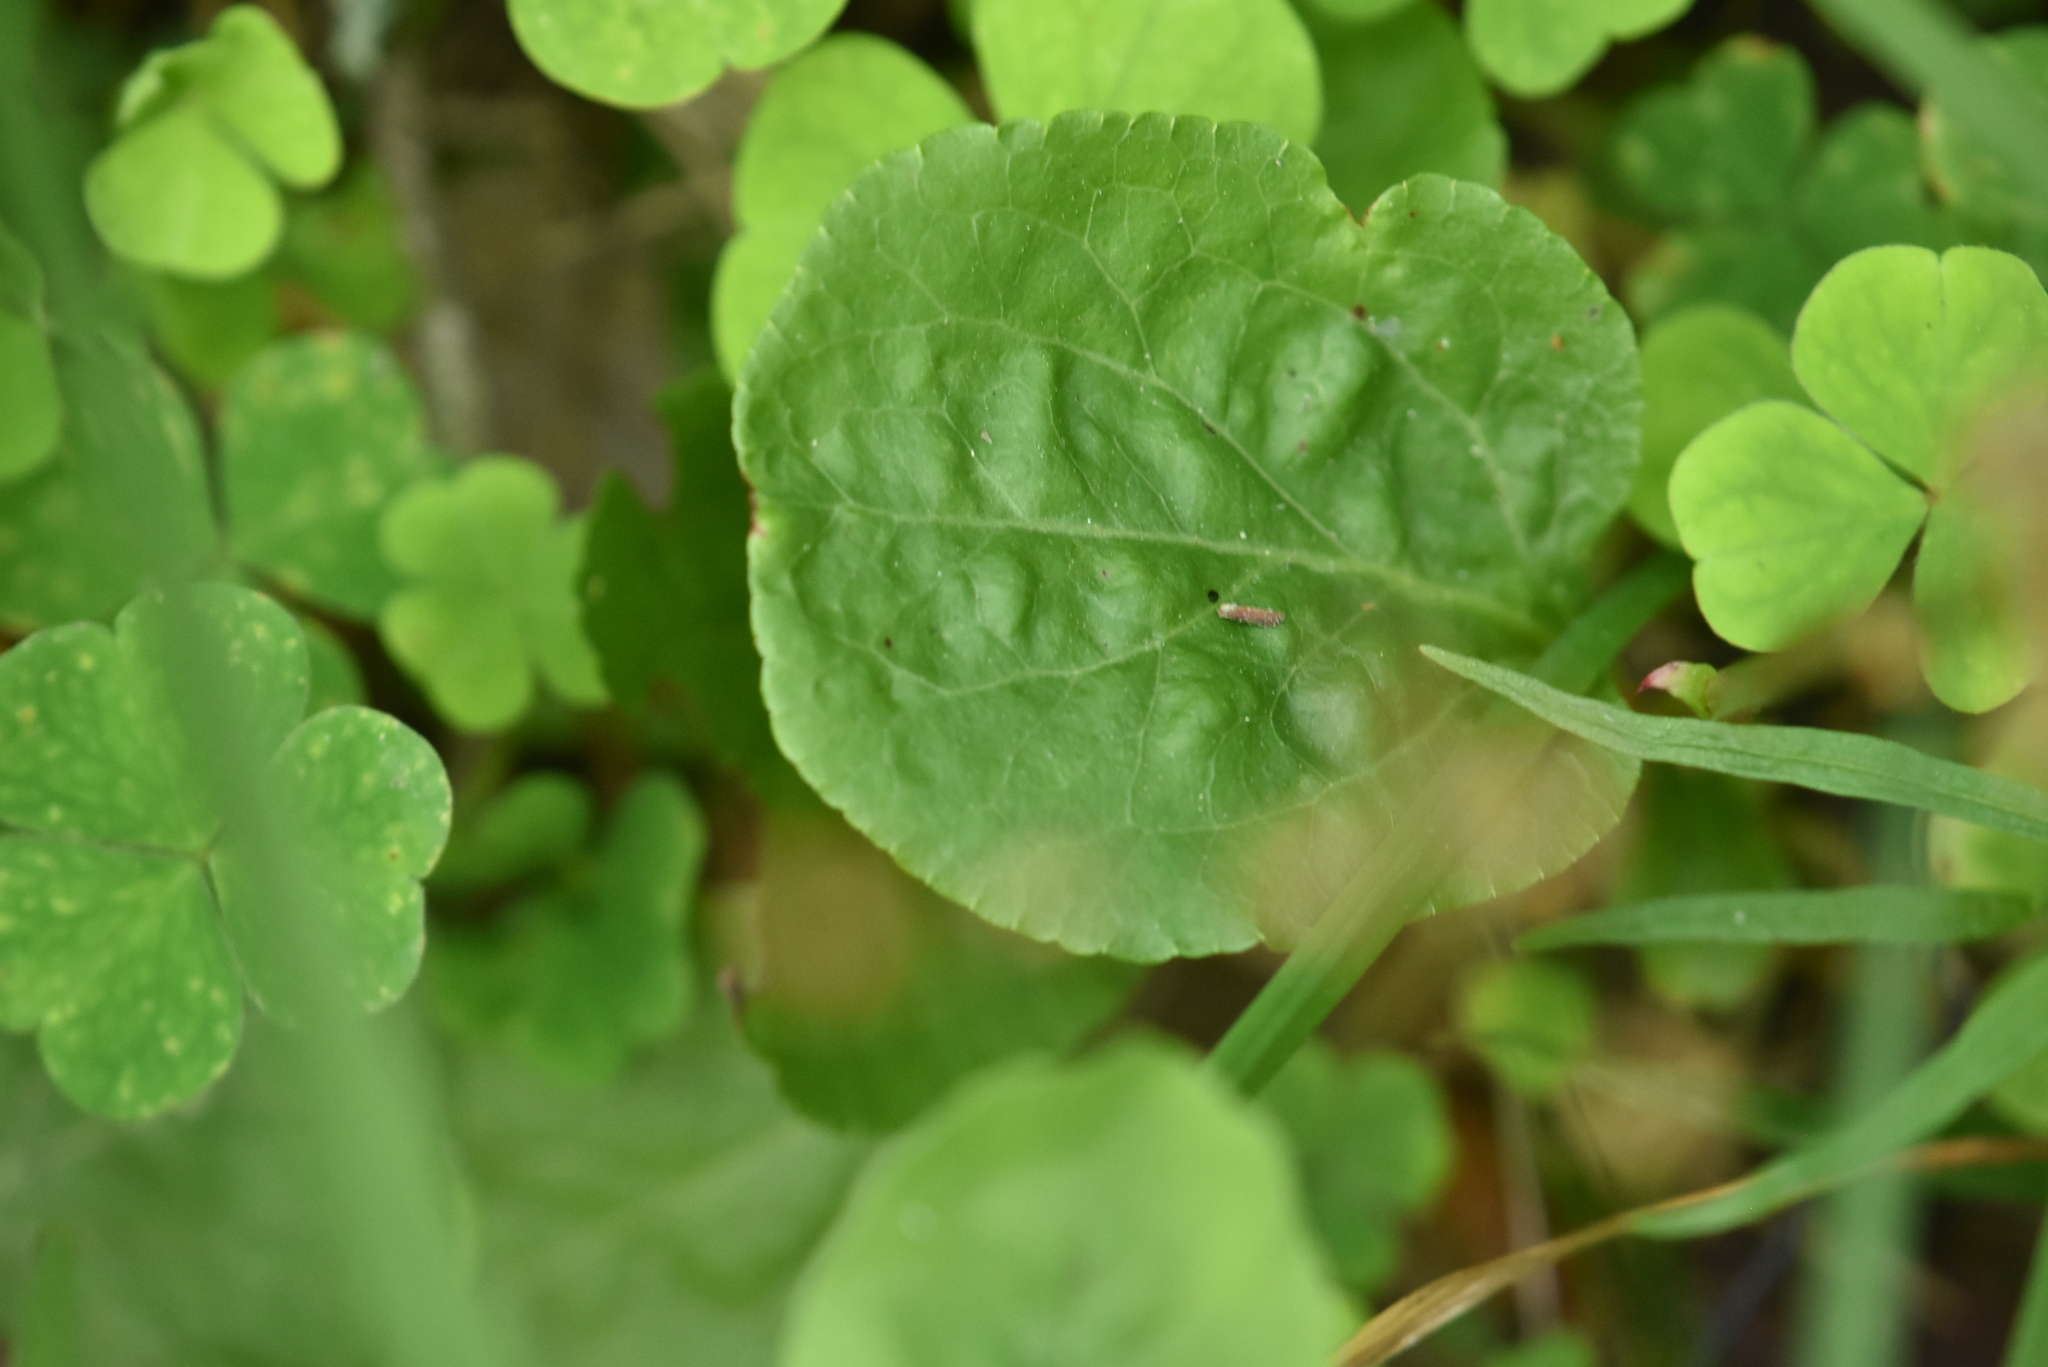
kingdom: Plantae
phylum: Tracheophyta
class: Magnoliopsida
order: Ericales
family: Ericaceae
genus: Pyrola
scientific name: Pyrola minor
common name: Common wintergreen
